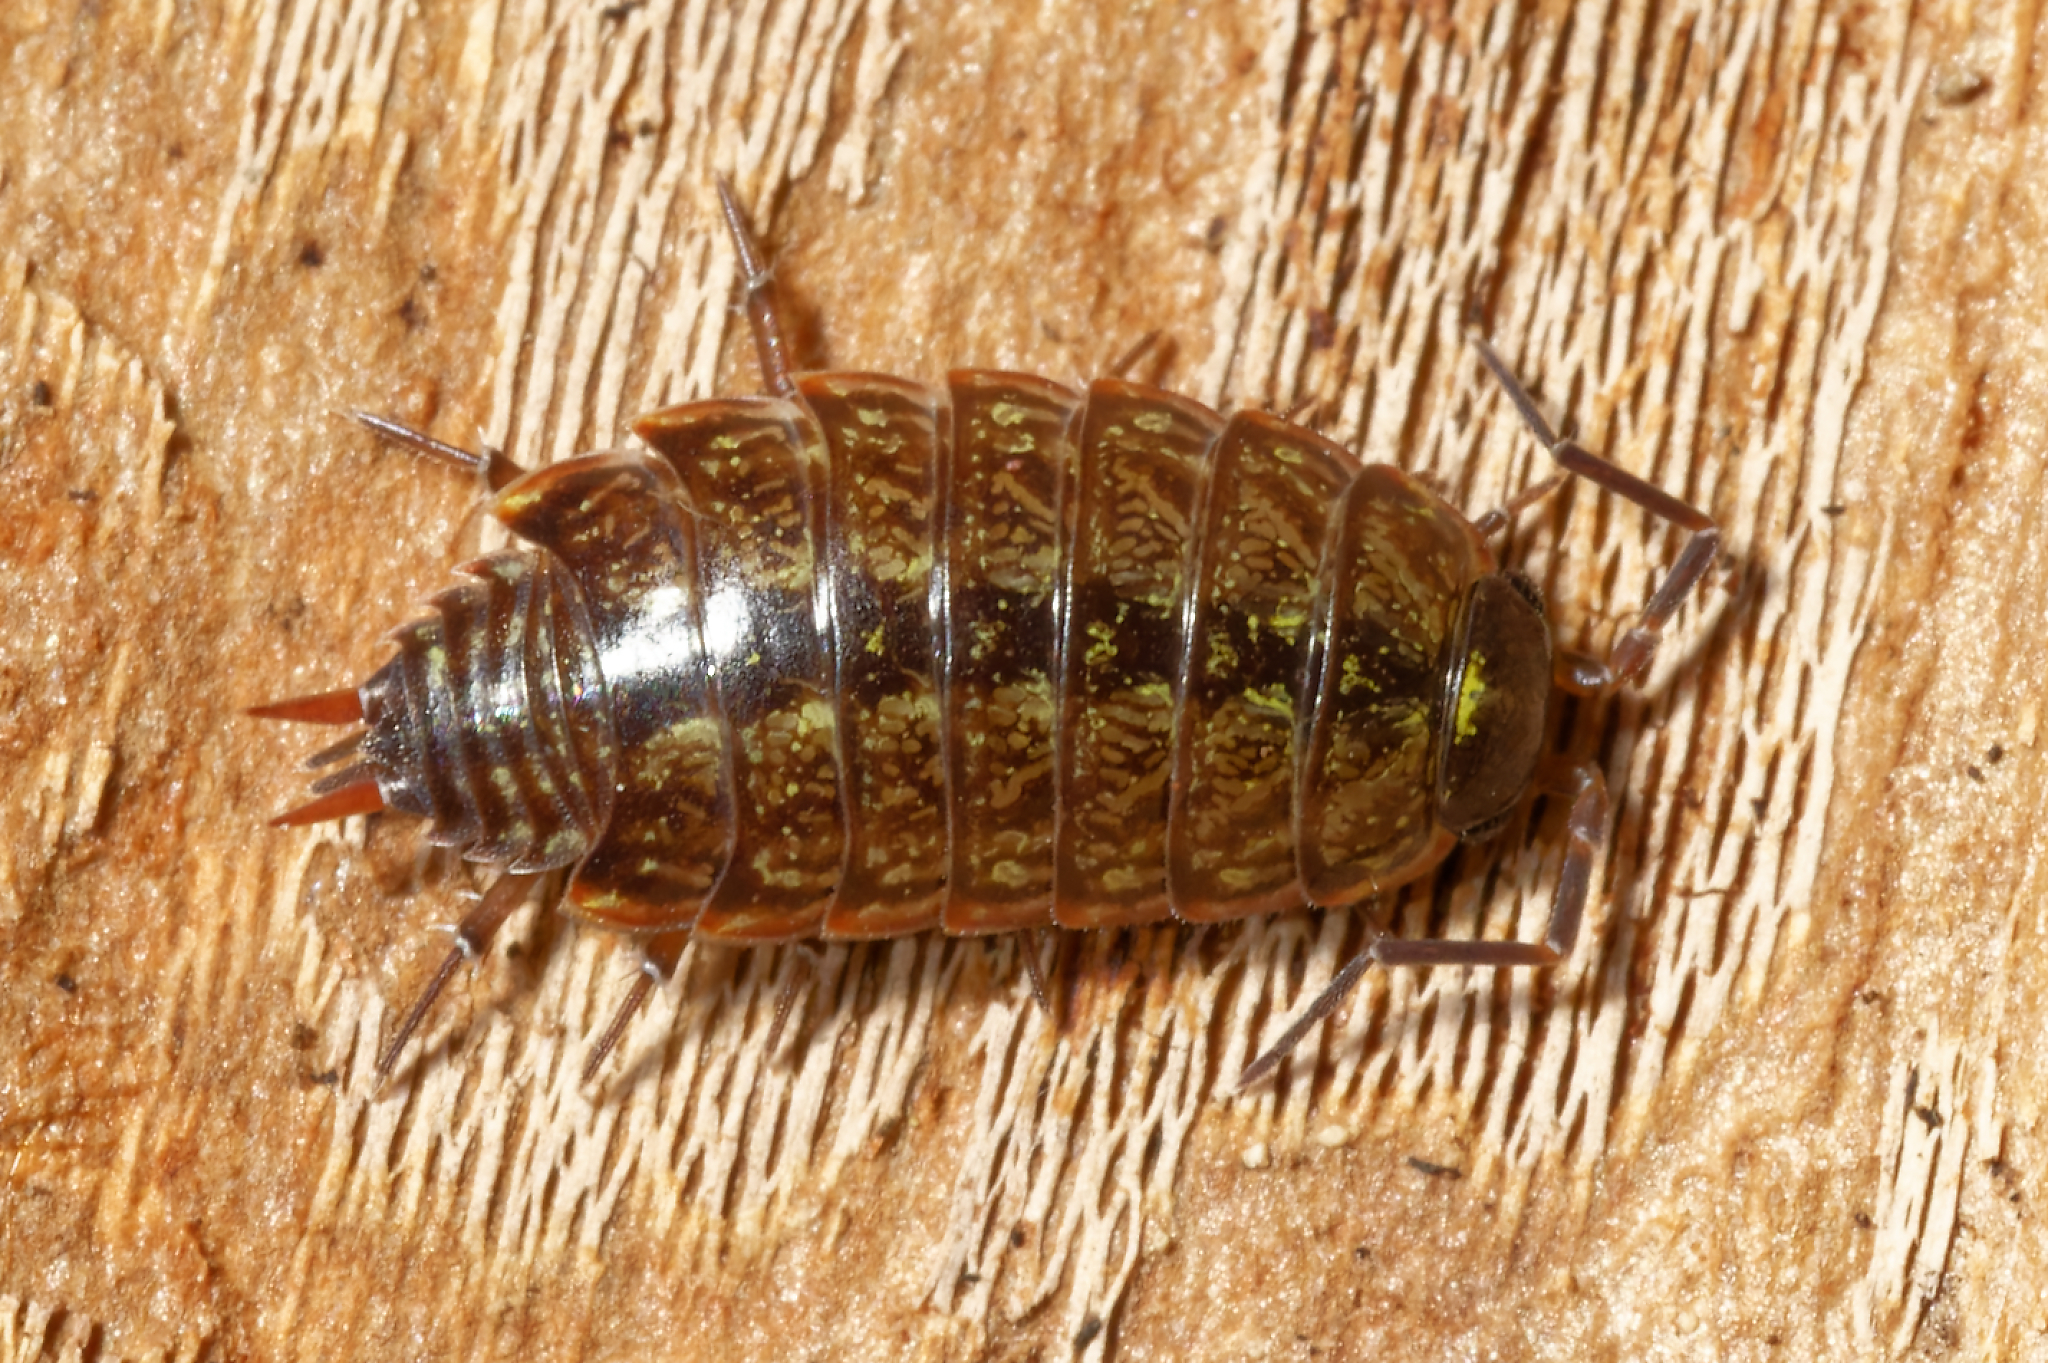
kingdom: Animalia
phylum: Arthropoda
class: Malacostraca
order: Isopoda
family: Philosciidae
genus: Philoscia
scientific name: Philoscia muscorum
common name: Common striped woodlouse
